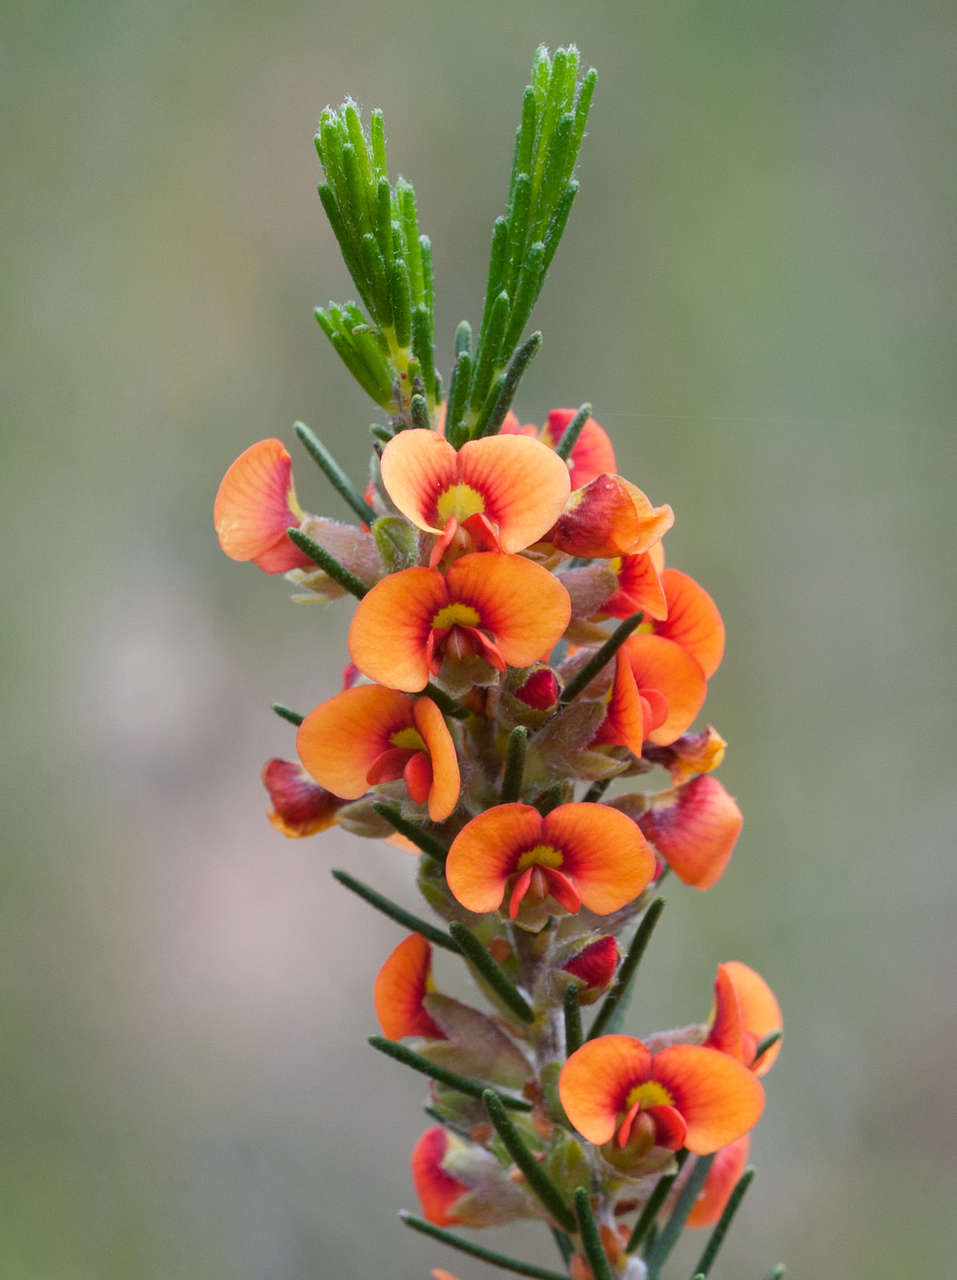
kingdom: Plantae
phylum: Tracheophyta
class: Magnoliopsida
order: Fabales
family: Fabaceae
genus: Dillwynia
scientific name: Dillwynia sericea
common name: Showy parrot-pea
